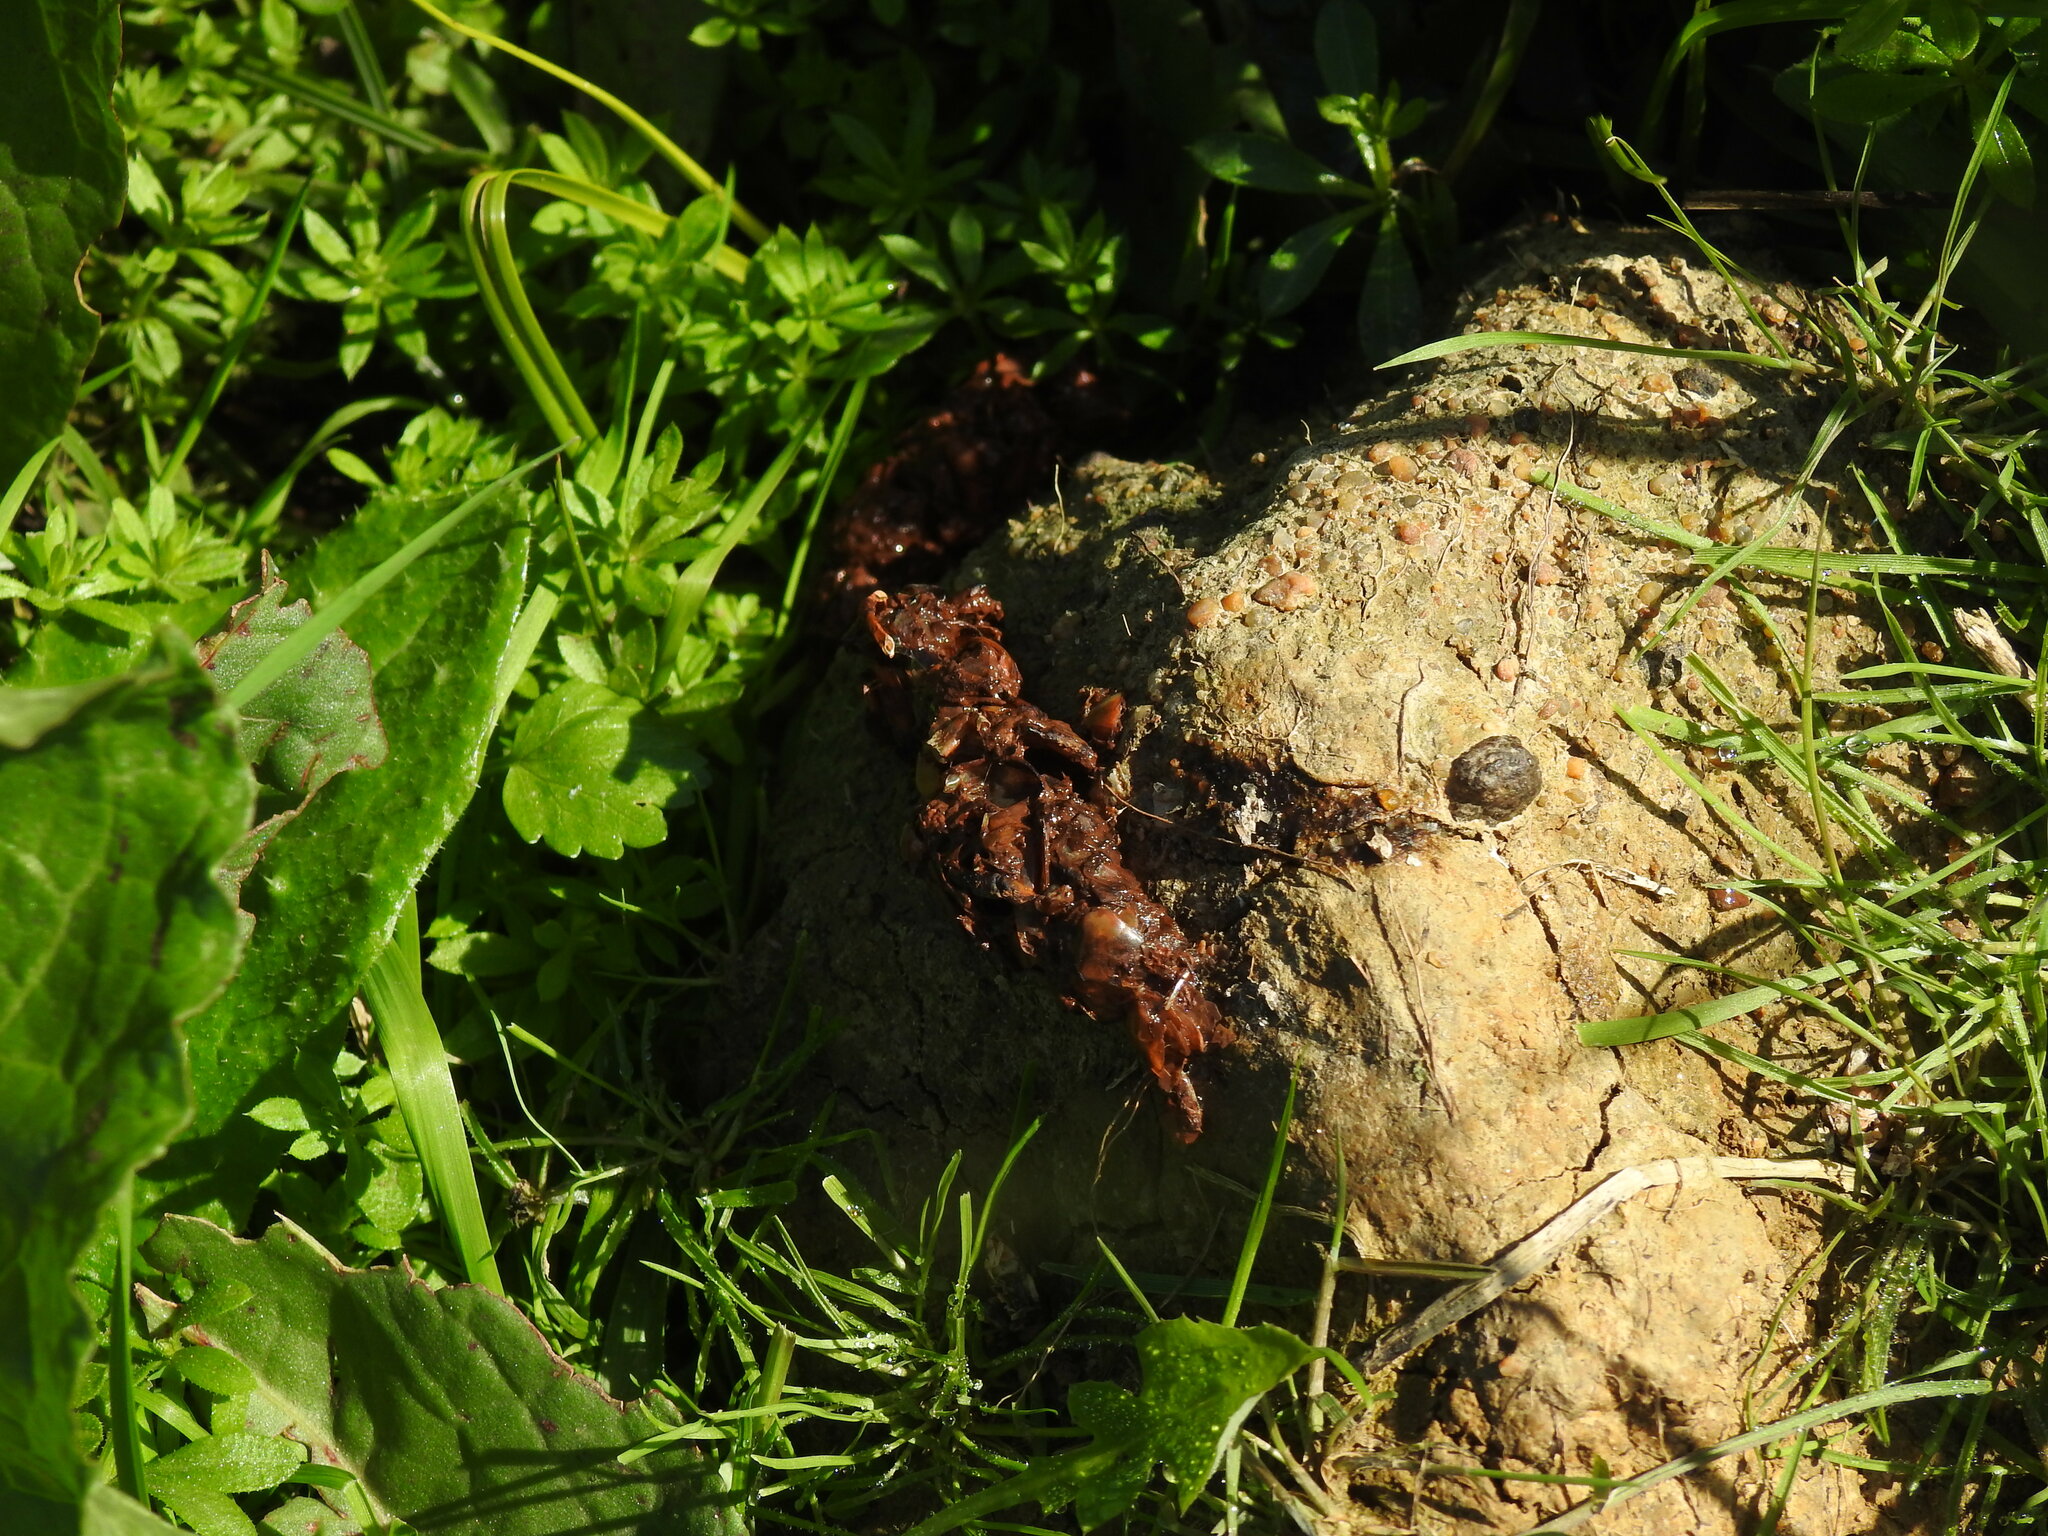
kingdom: Animalia
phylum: Chordata
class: Mammalia
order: Carnivora
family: Mustelidae
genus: Lutra
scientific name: Lutra lutra
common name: European otter
